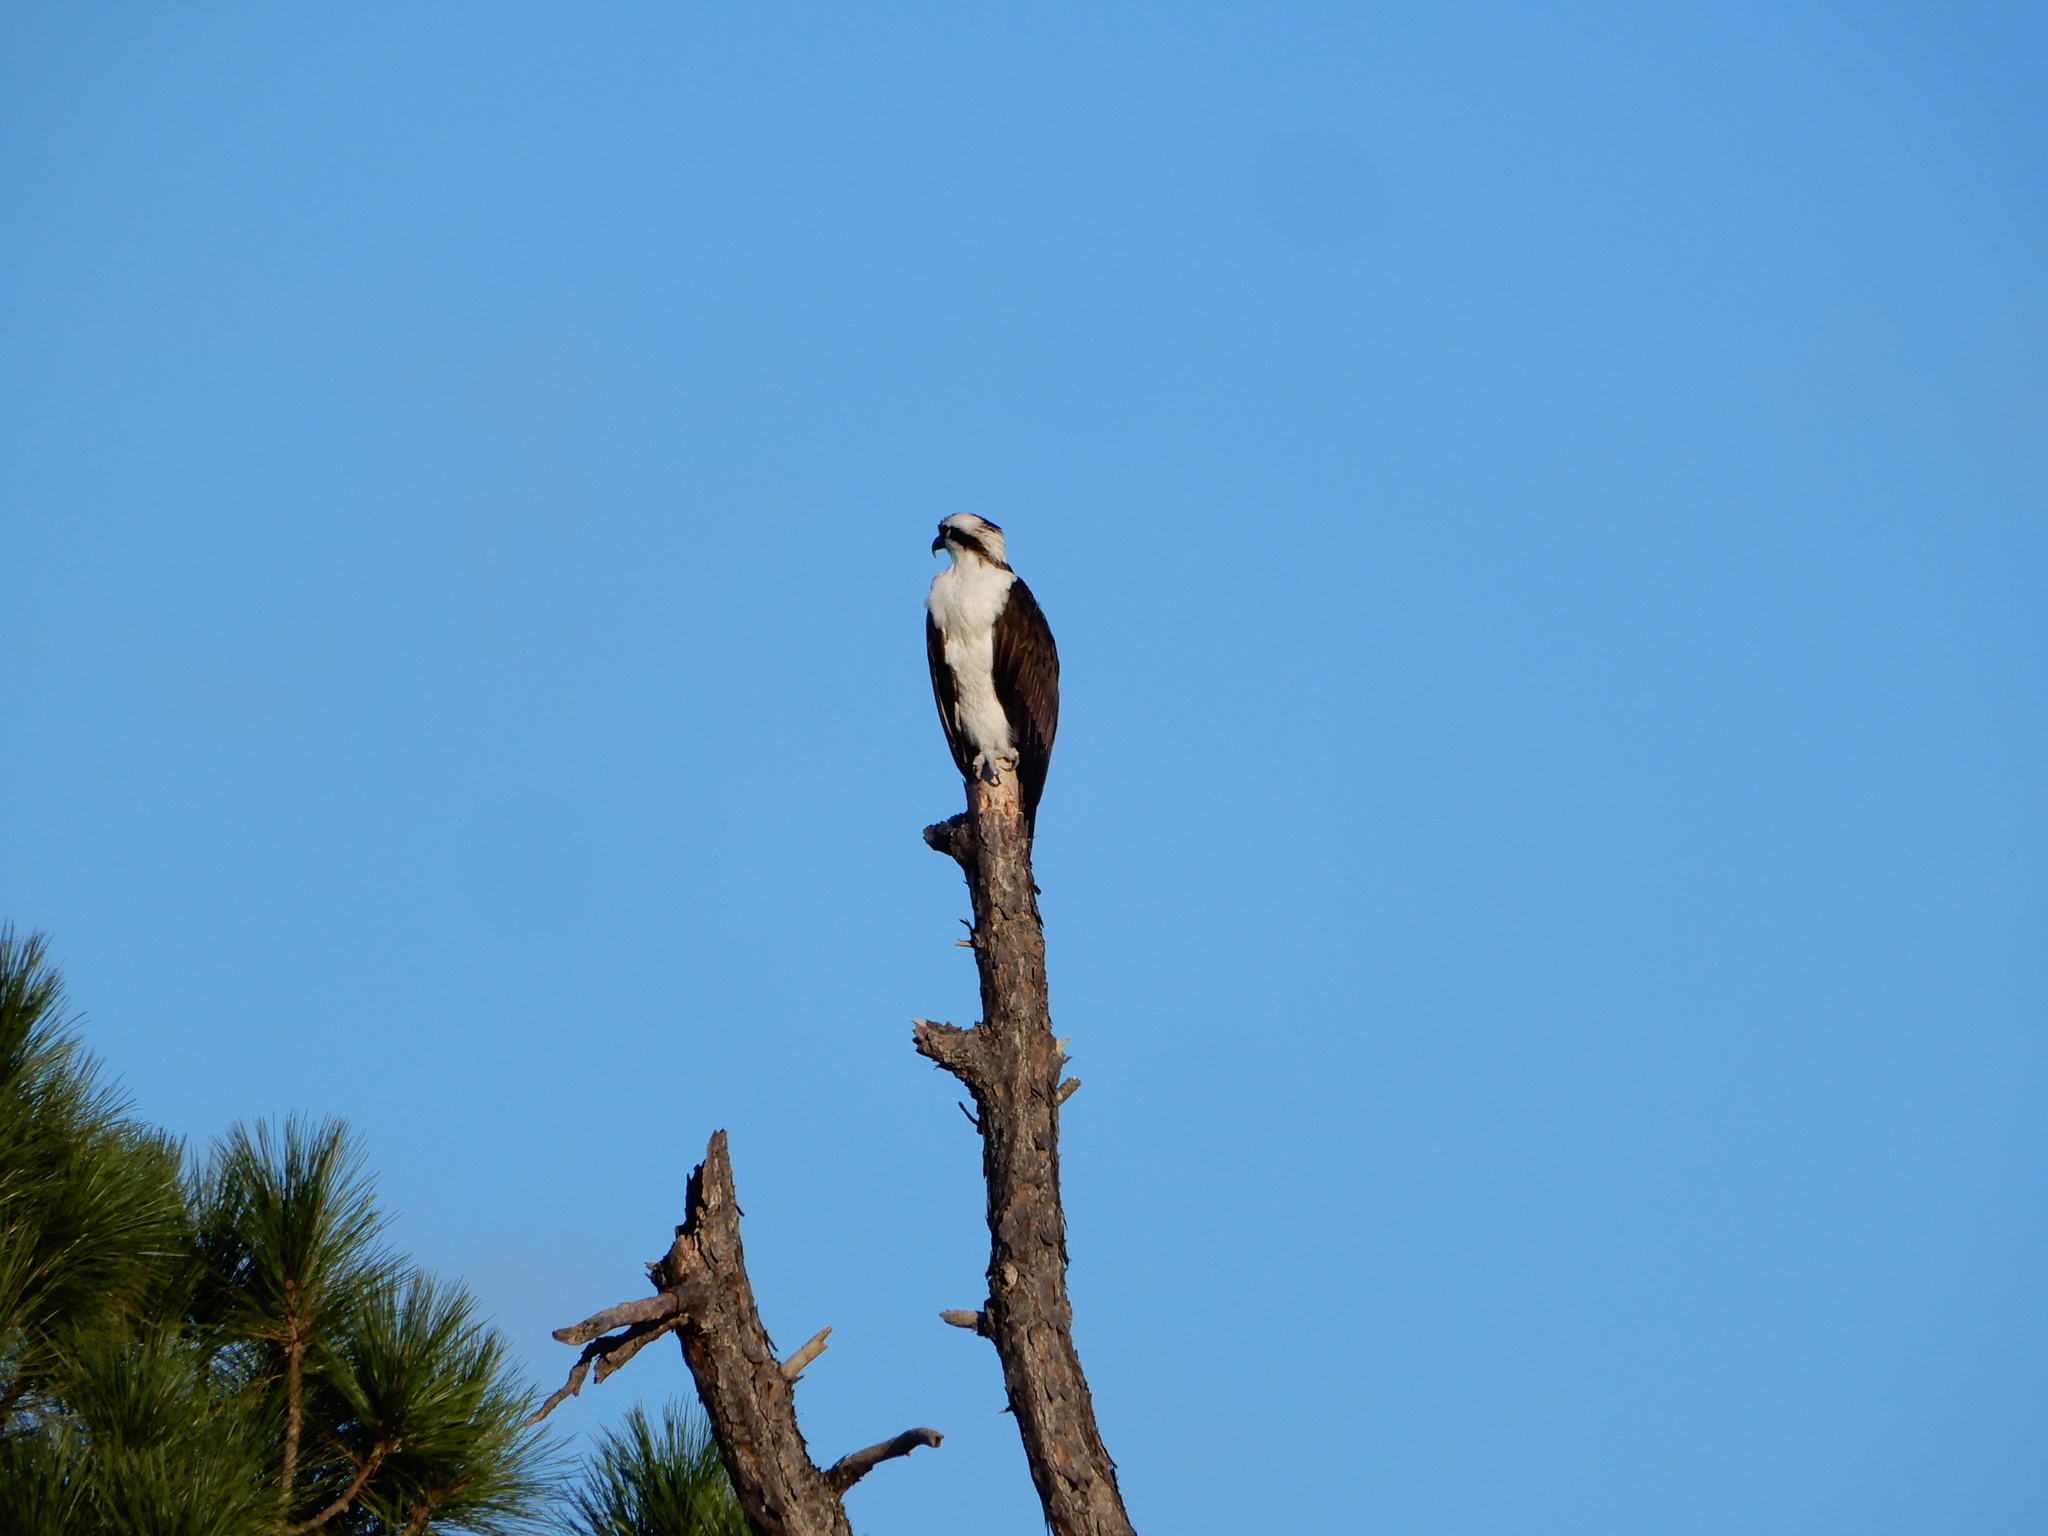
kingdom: Animalia
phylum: Chordata
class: Aves
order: Accipitriformes
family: Pandionidae
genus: Pandion
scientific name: Pandion haliaetus
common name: Osprey
